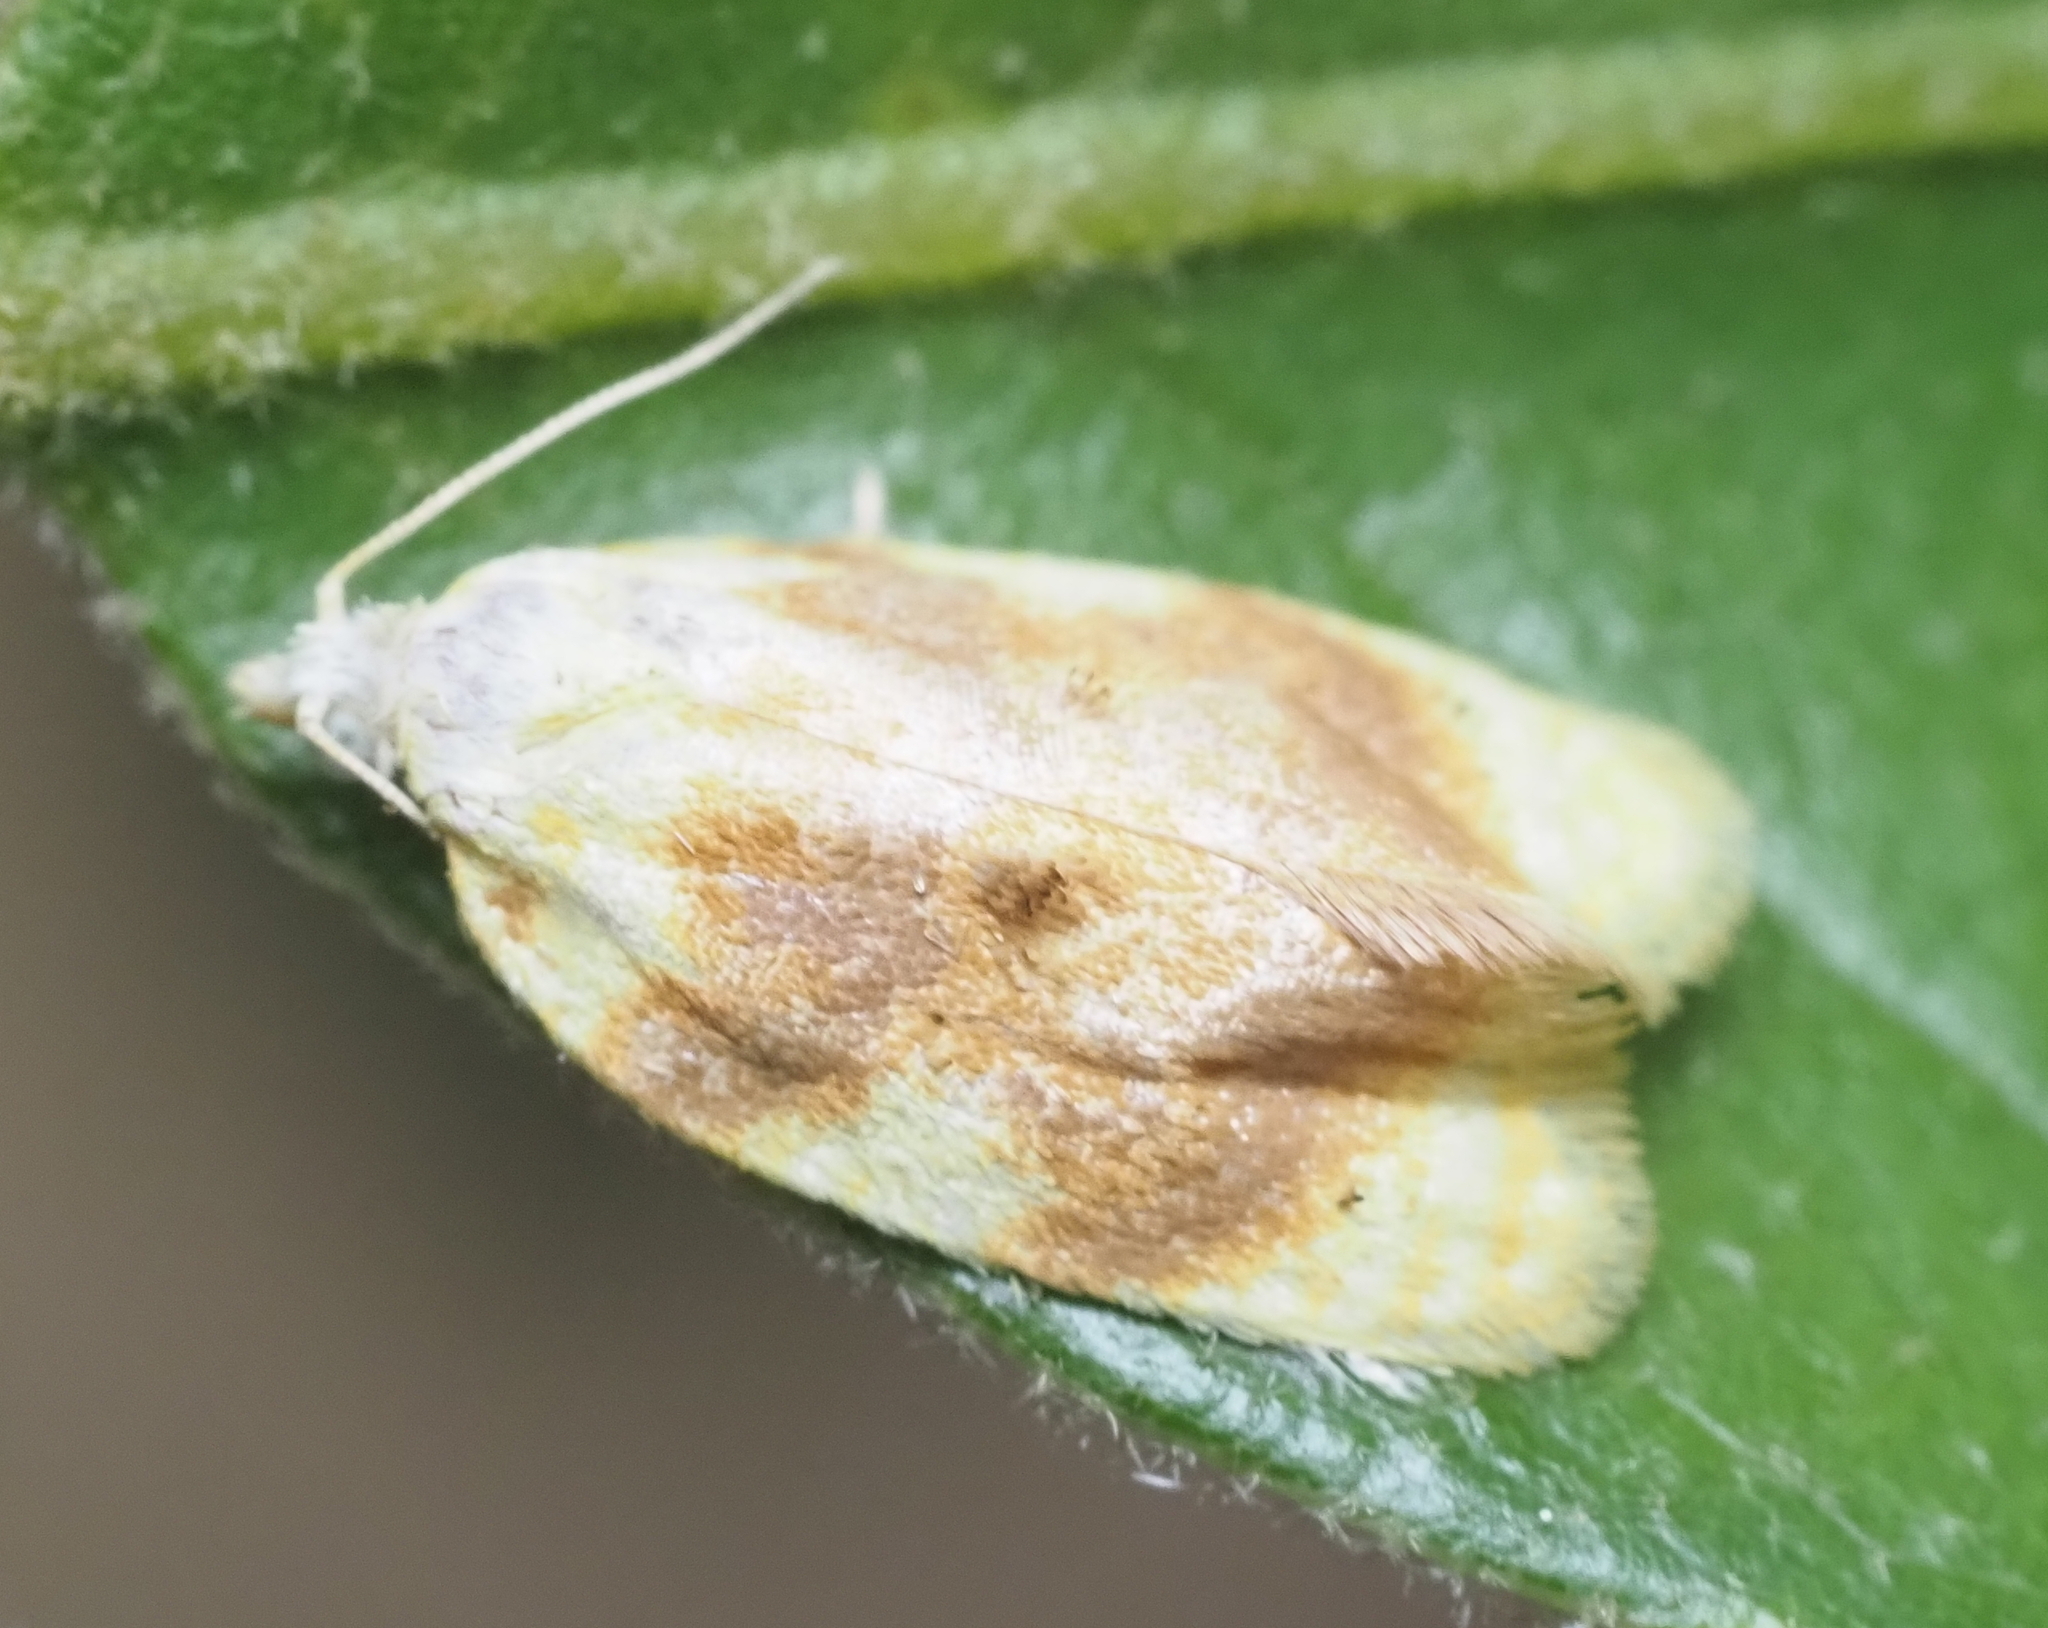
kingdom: Animalia
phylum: Arthropoda
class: Insecta
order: Lepidoptera
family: Tortricidae
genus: Acleris
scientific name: Acleris semipurpurana
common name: Oak leaftier moth
